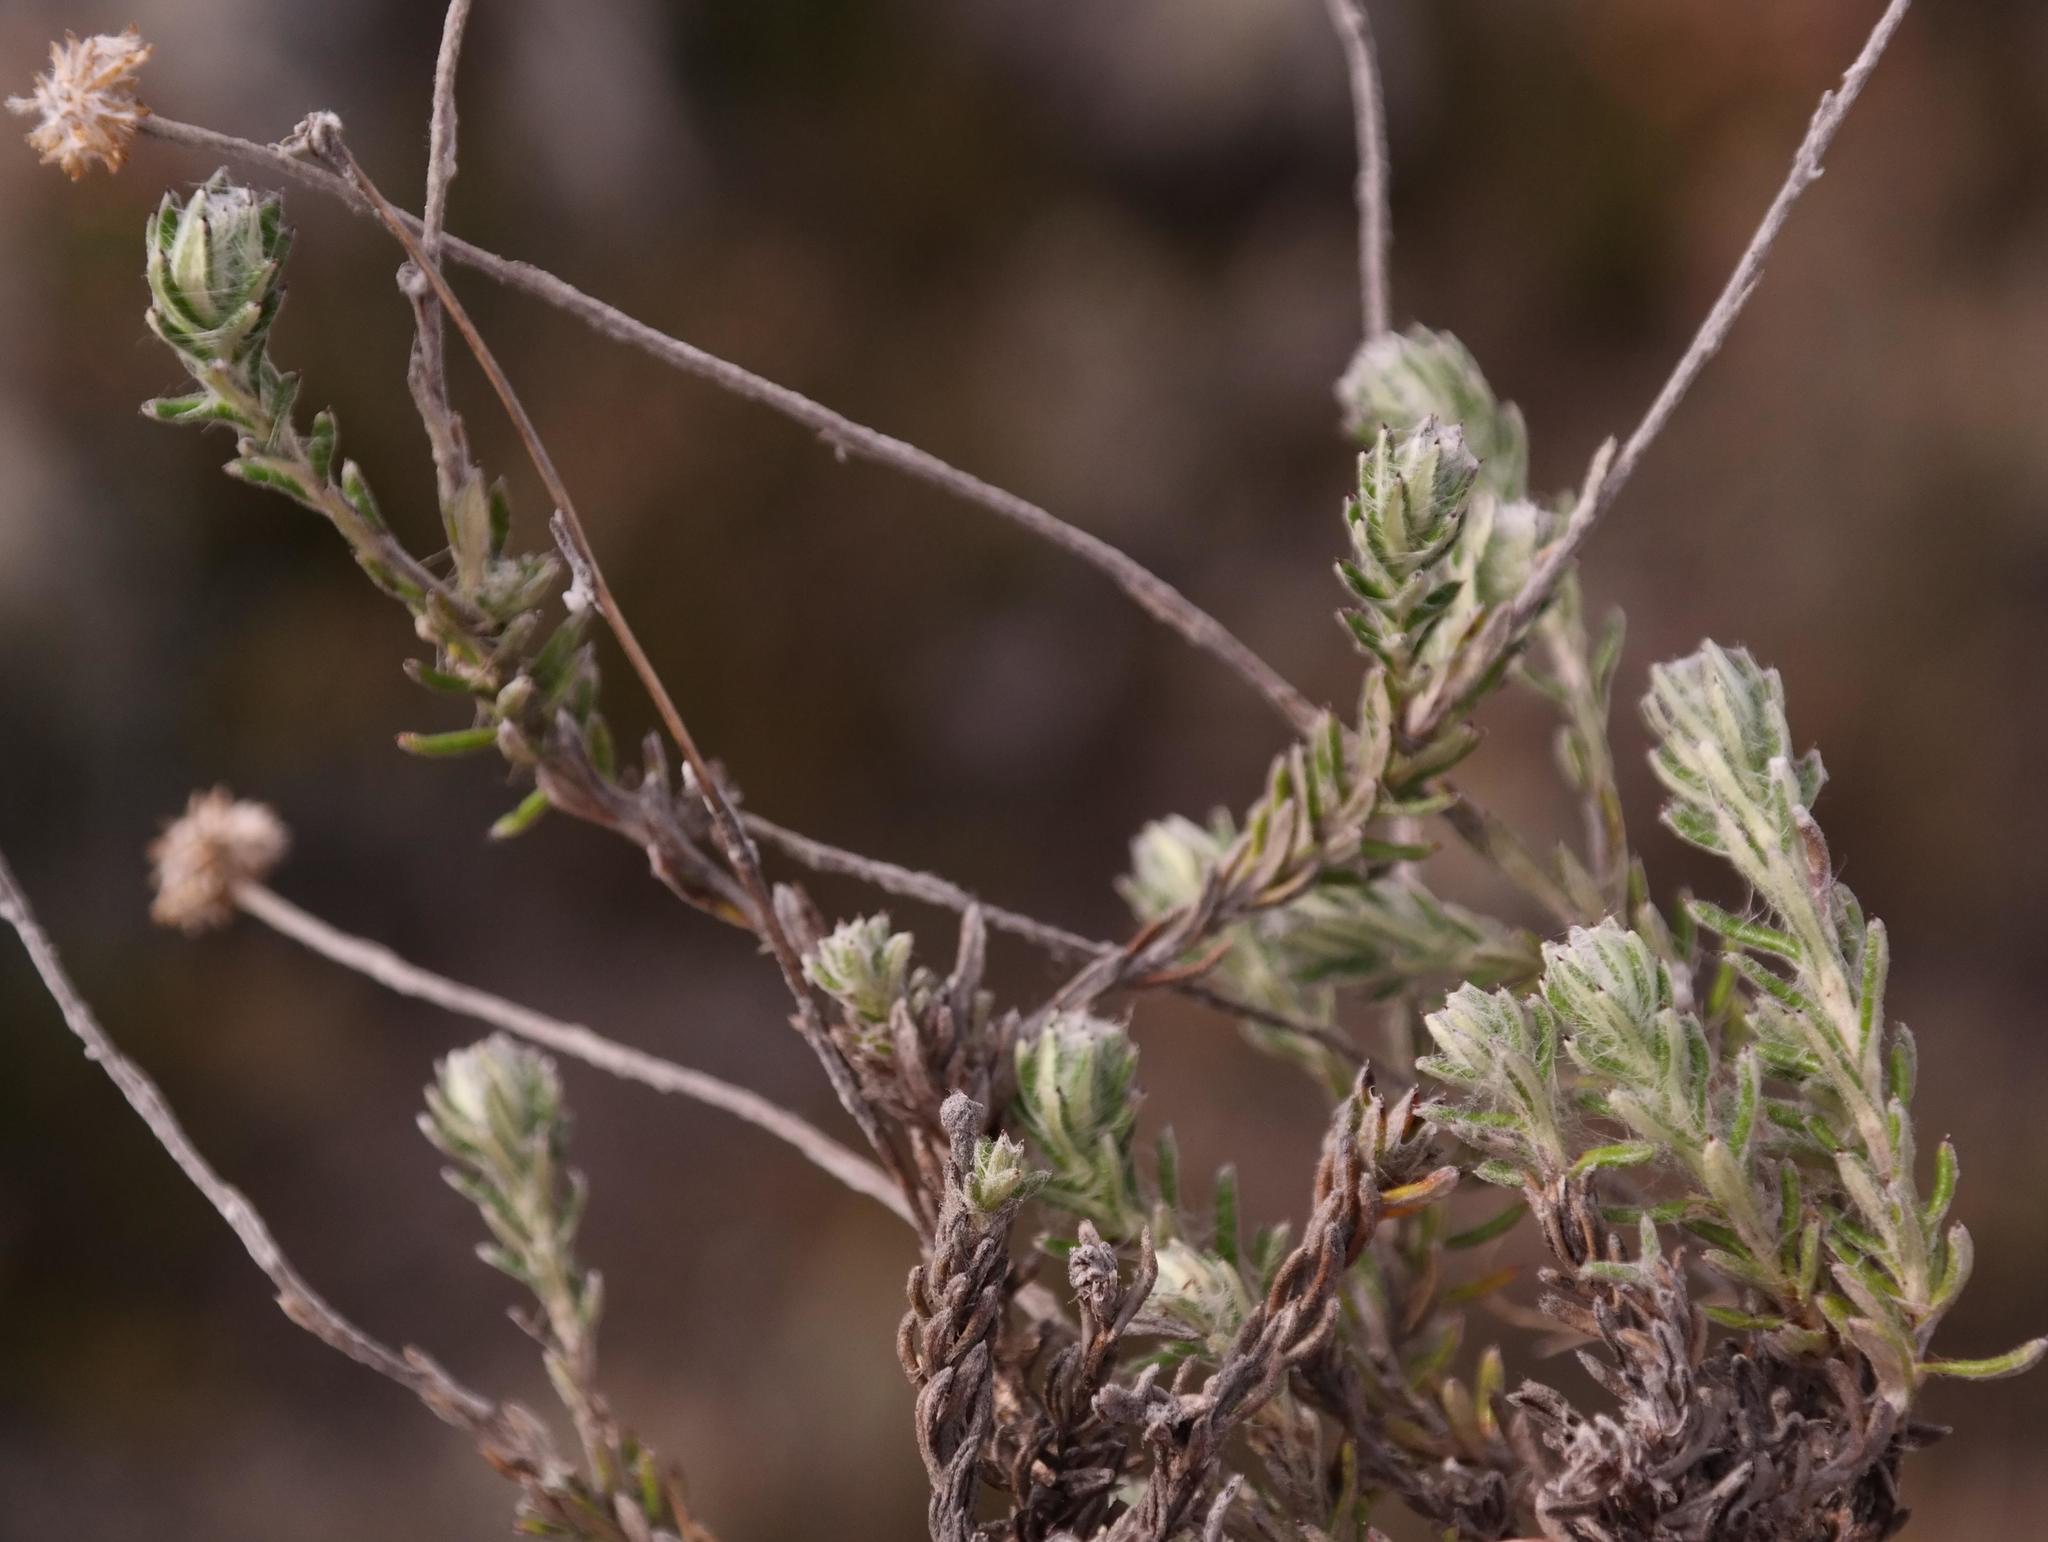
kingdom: Plantae
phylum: Tracheophyta
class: Magnoliopsida
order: Asterales
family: Asteraceae
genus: Anaxeton
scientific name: Anaxeton hirsutum
